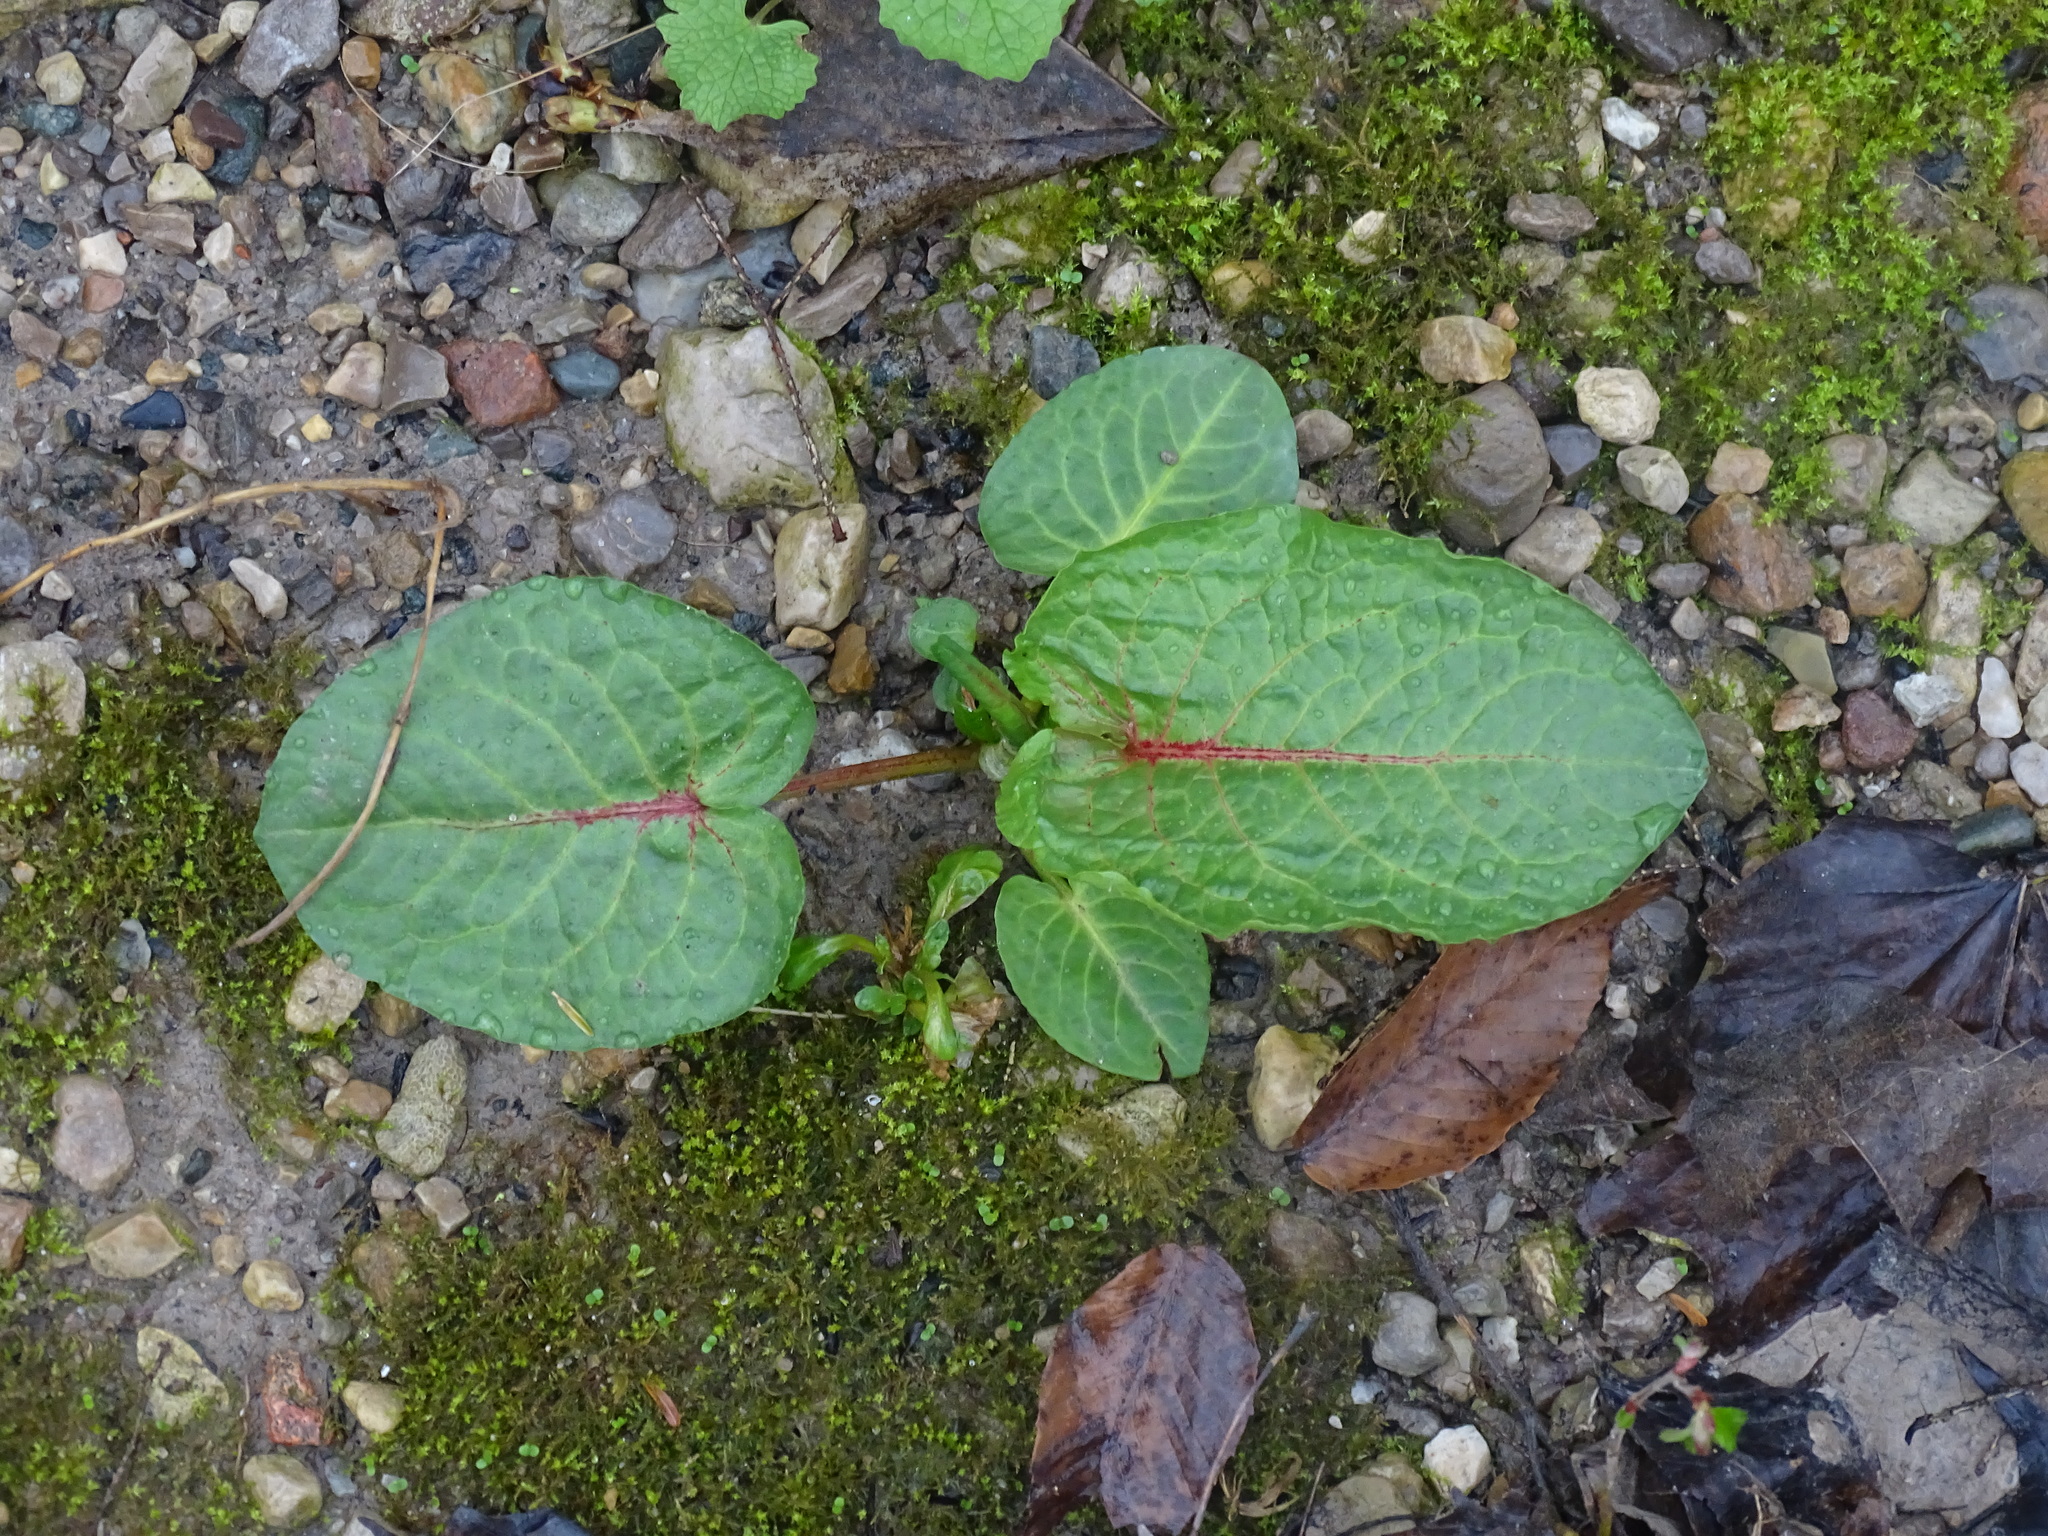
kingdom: Plantae
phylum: Tracheophyta
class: Magnoliopsida
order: Caryophyllales
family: Polygonaceae
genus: Rumex
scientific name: Rumex obtusifolius
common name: Bitter dock
